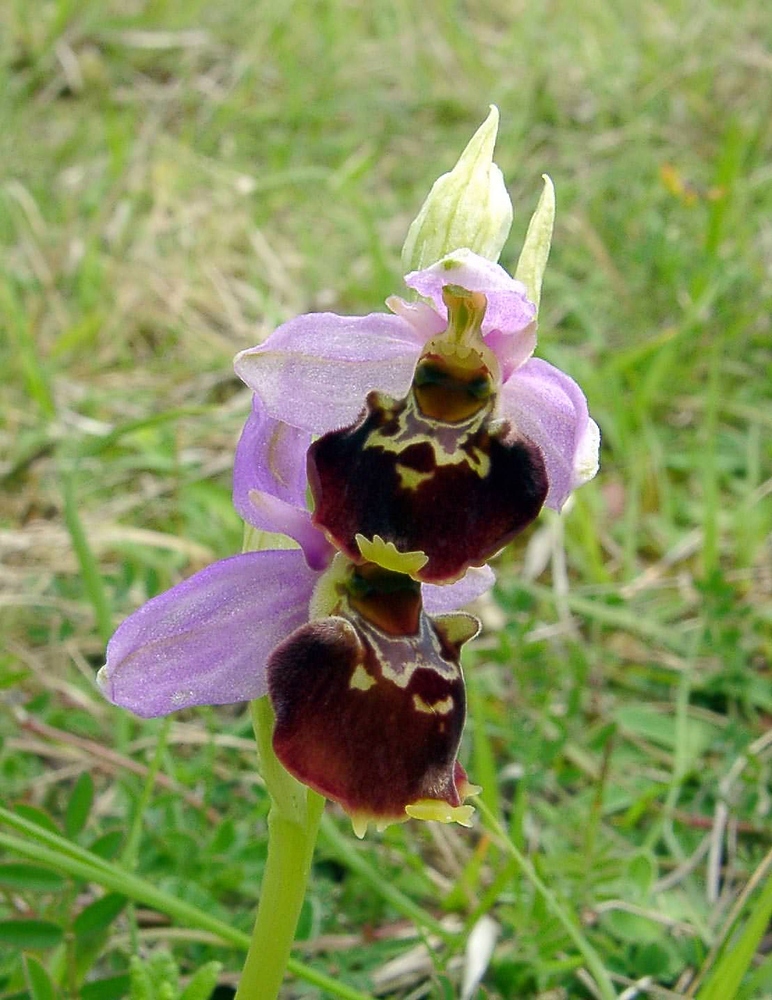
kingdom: Plantae
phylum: Tracheophyta
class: Liliopsida
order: Asparagales
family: Orchidaceae
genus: Ophrys
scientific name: Ophrys holosericea
